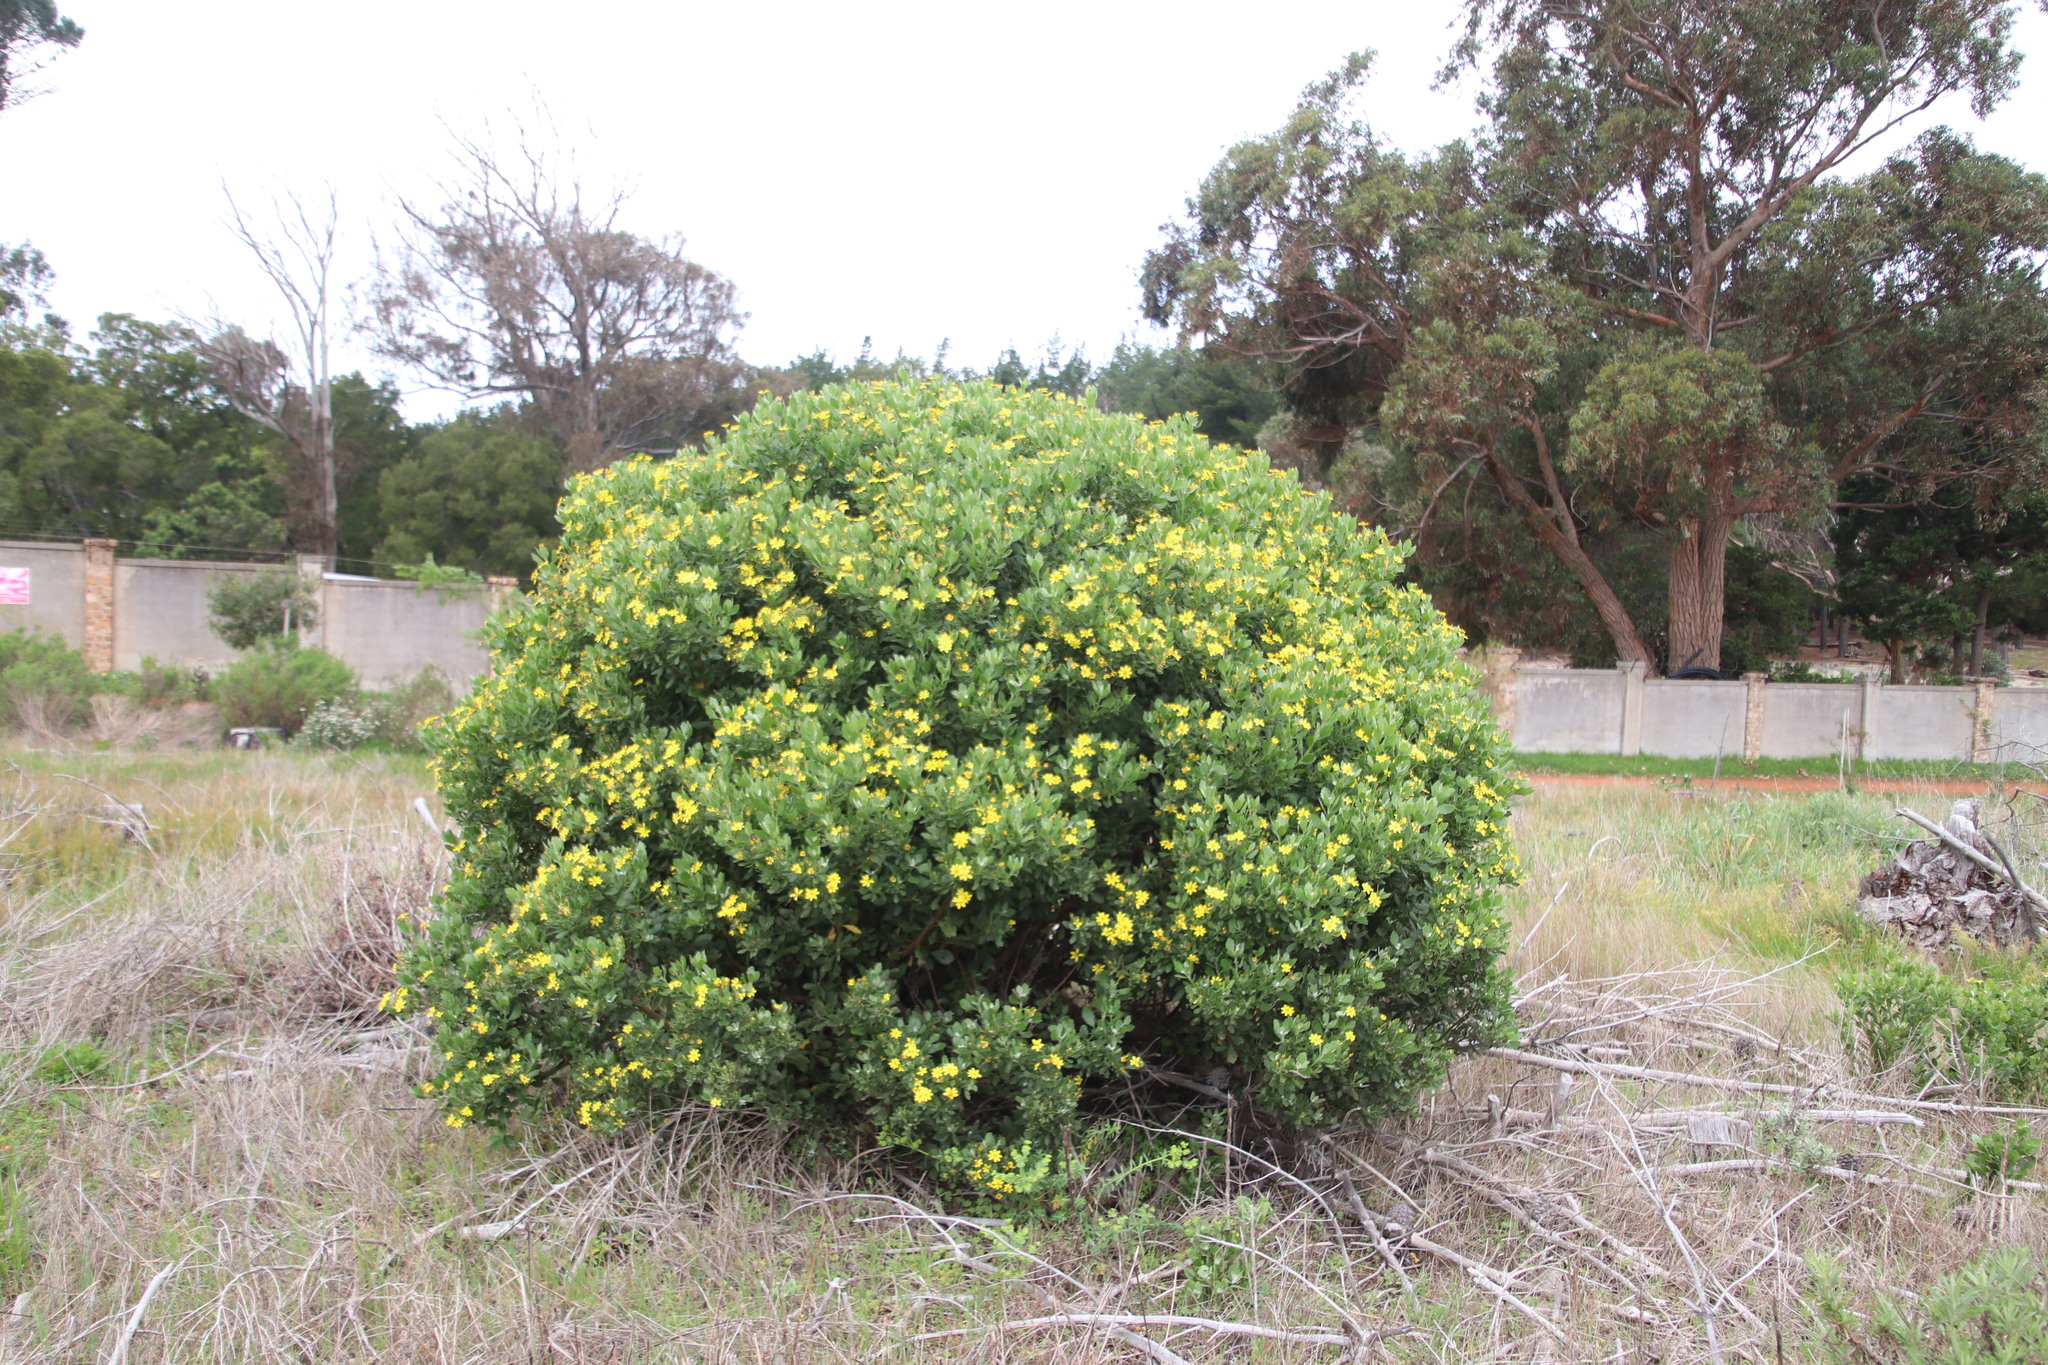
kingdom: Plantae
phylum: Tracheophyta
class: Magnoliopsida
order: Asterales
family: Asteraceae
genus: Osteospermum
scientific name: Osteospermum moniliferum
